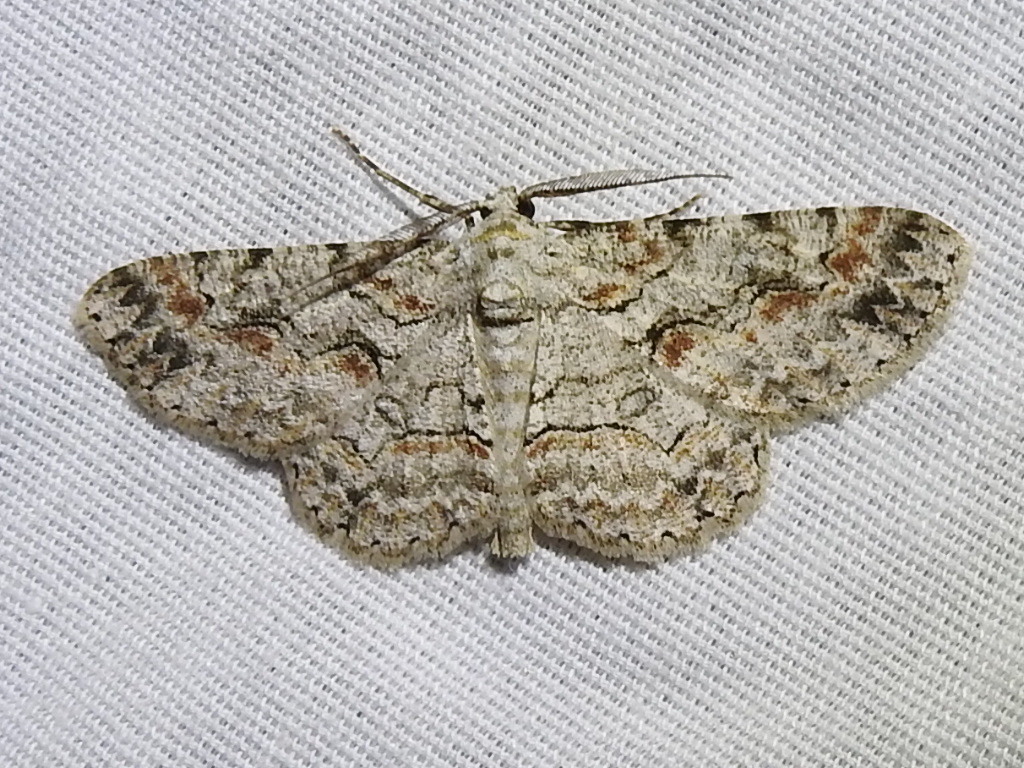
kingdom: Animalia
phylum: Arthropoda
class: Insecta
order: Lepidoptera
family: Geometridae
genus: Iridopsis
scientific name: Iridopsis defectaria
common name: Brown-shaded gray
